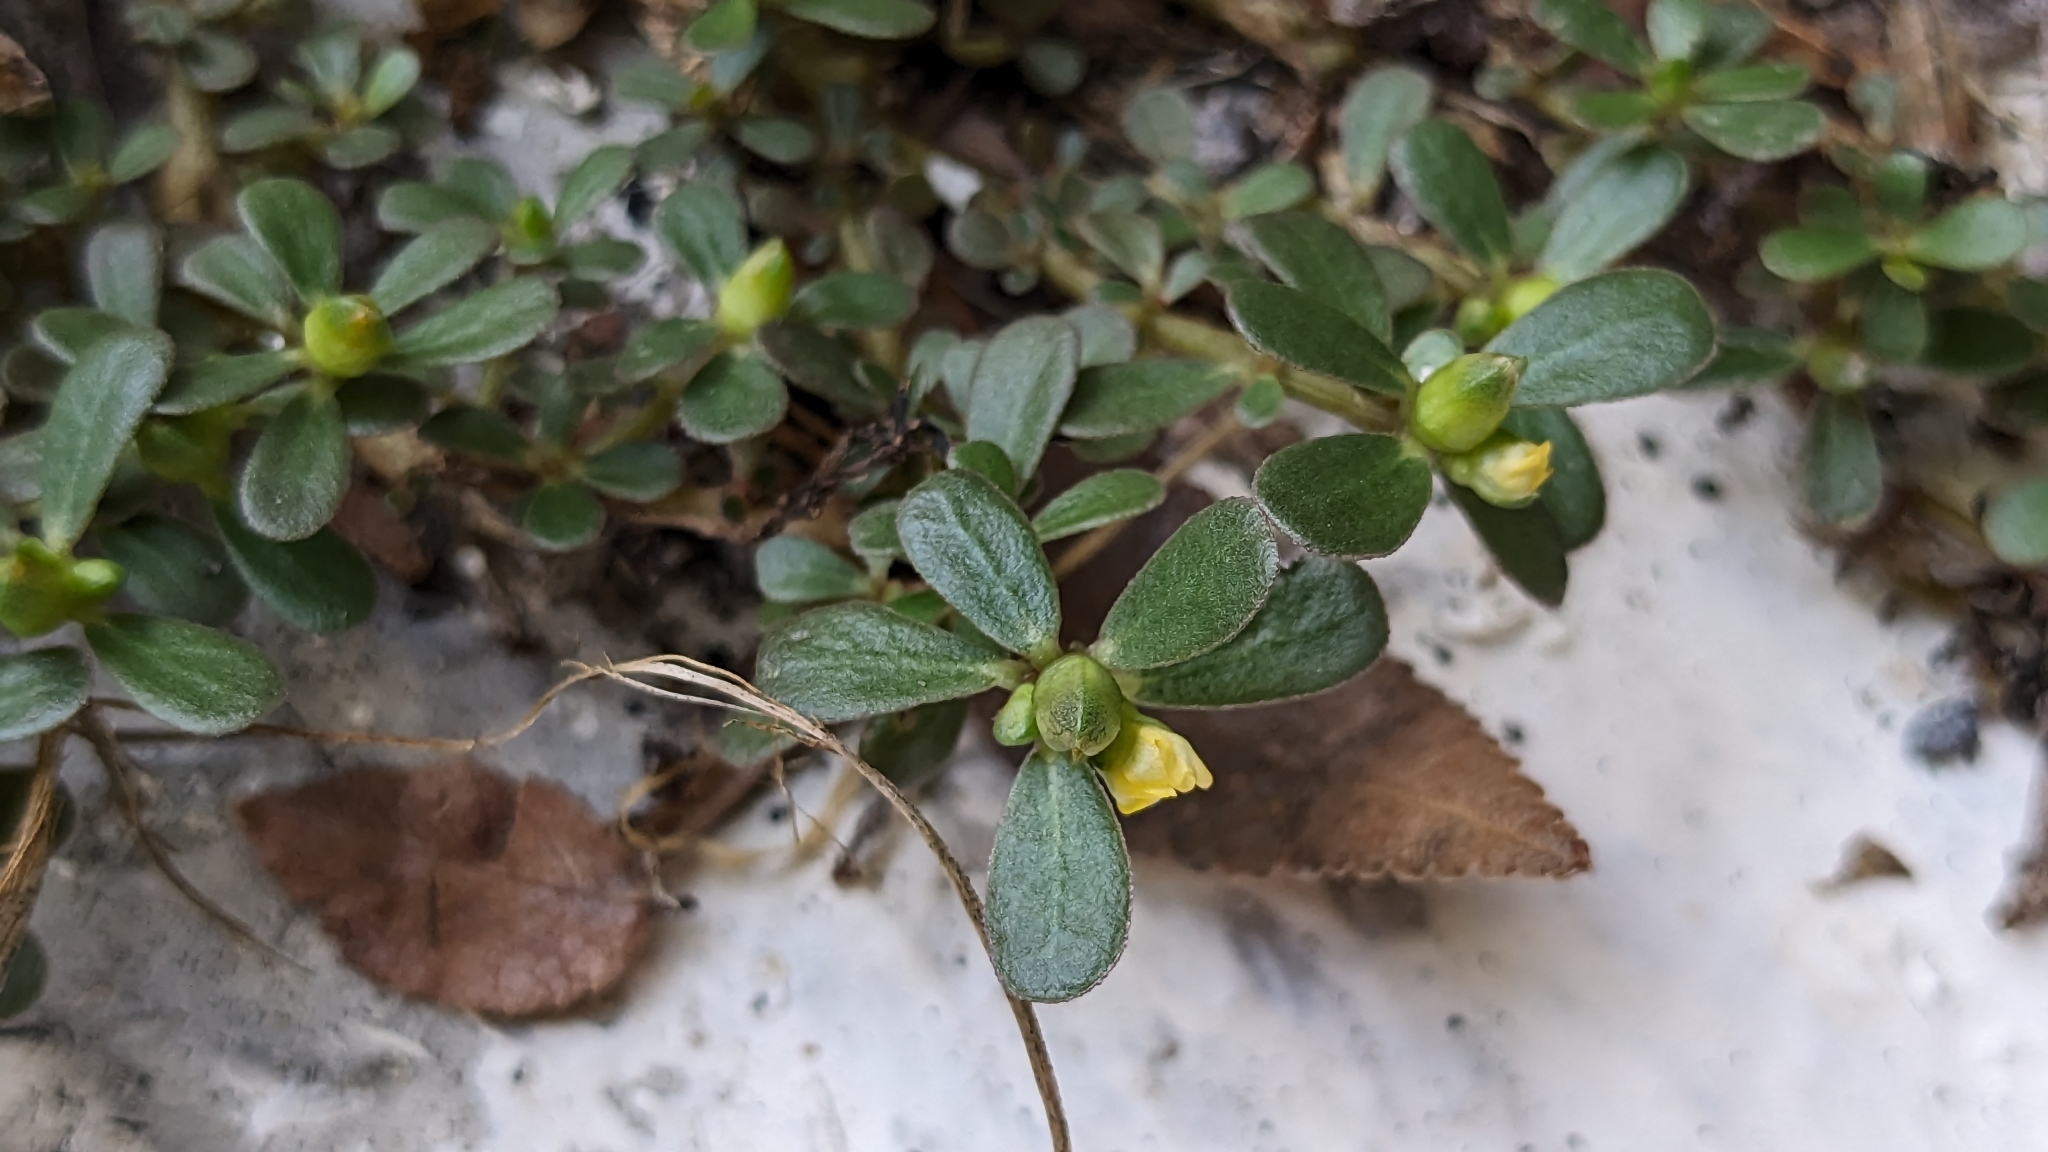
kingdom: Plantae
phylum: Tracheophyta
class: Magnoliopsida
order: Caryophyllales
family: Portulacaceae
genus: Portulaca
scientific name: Portulaca oleracea
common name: Common purslane
